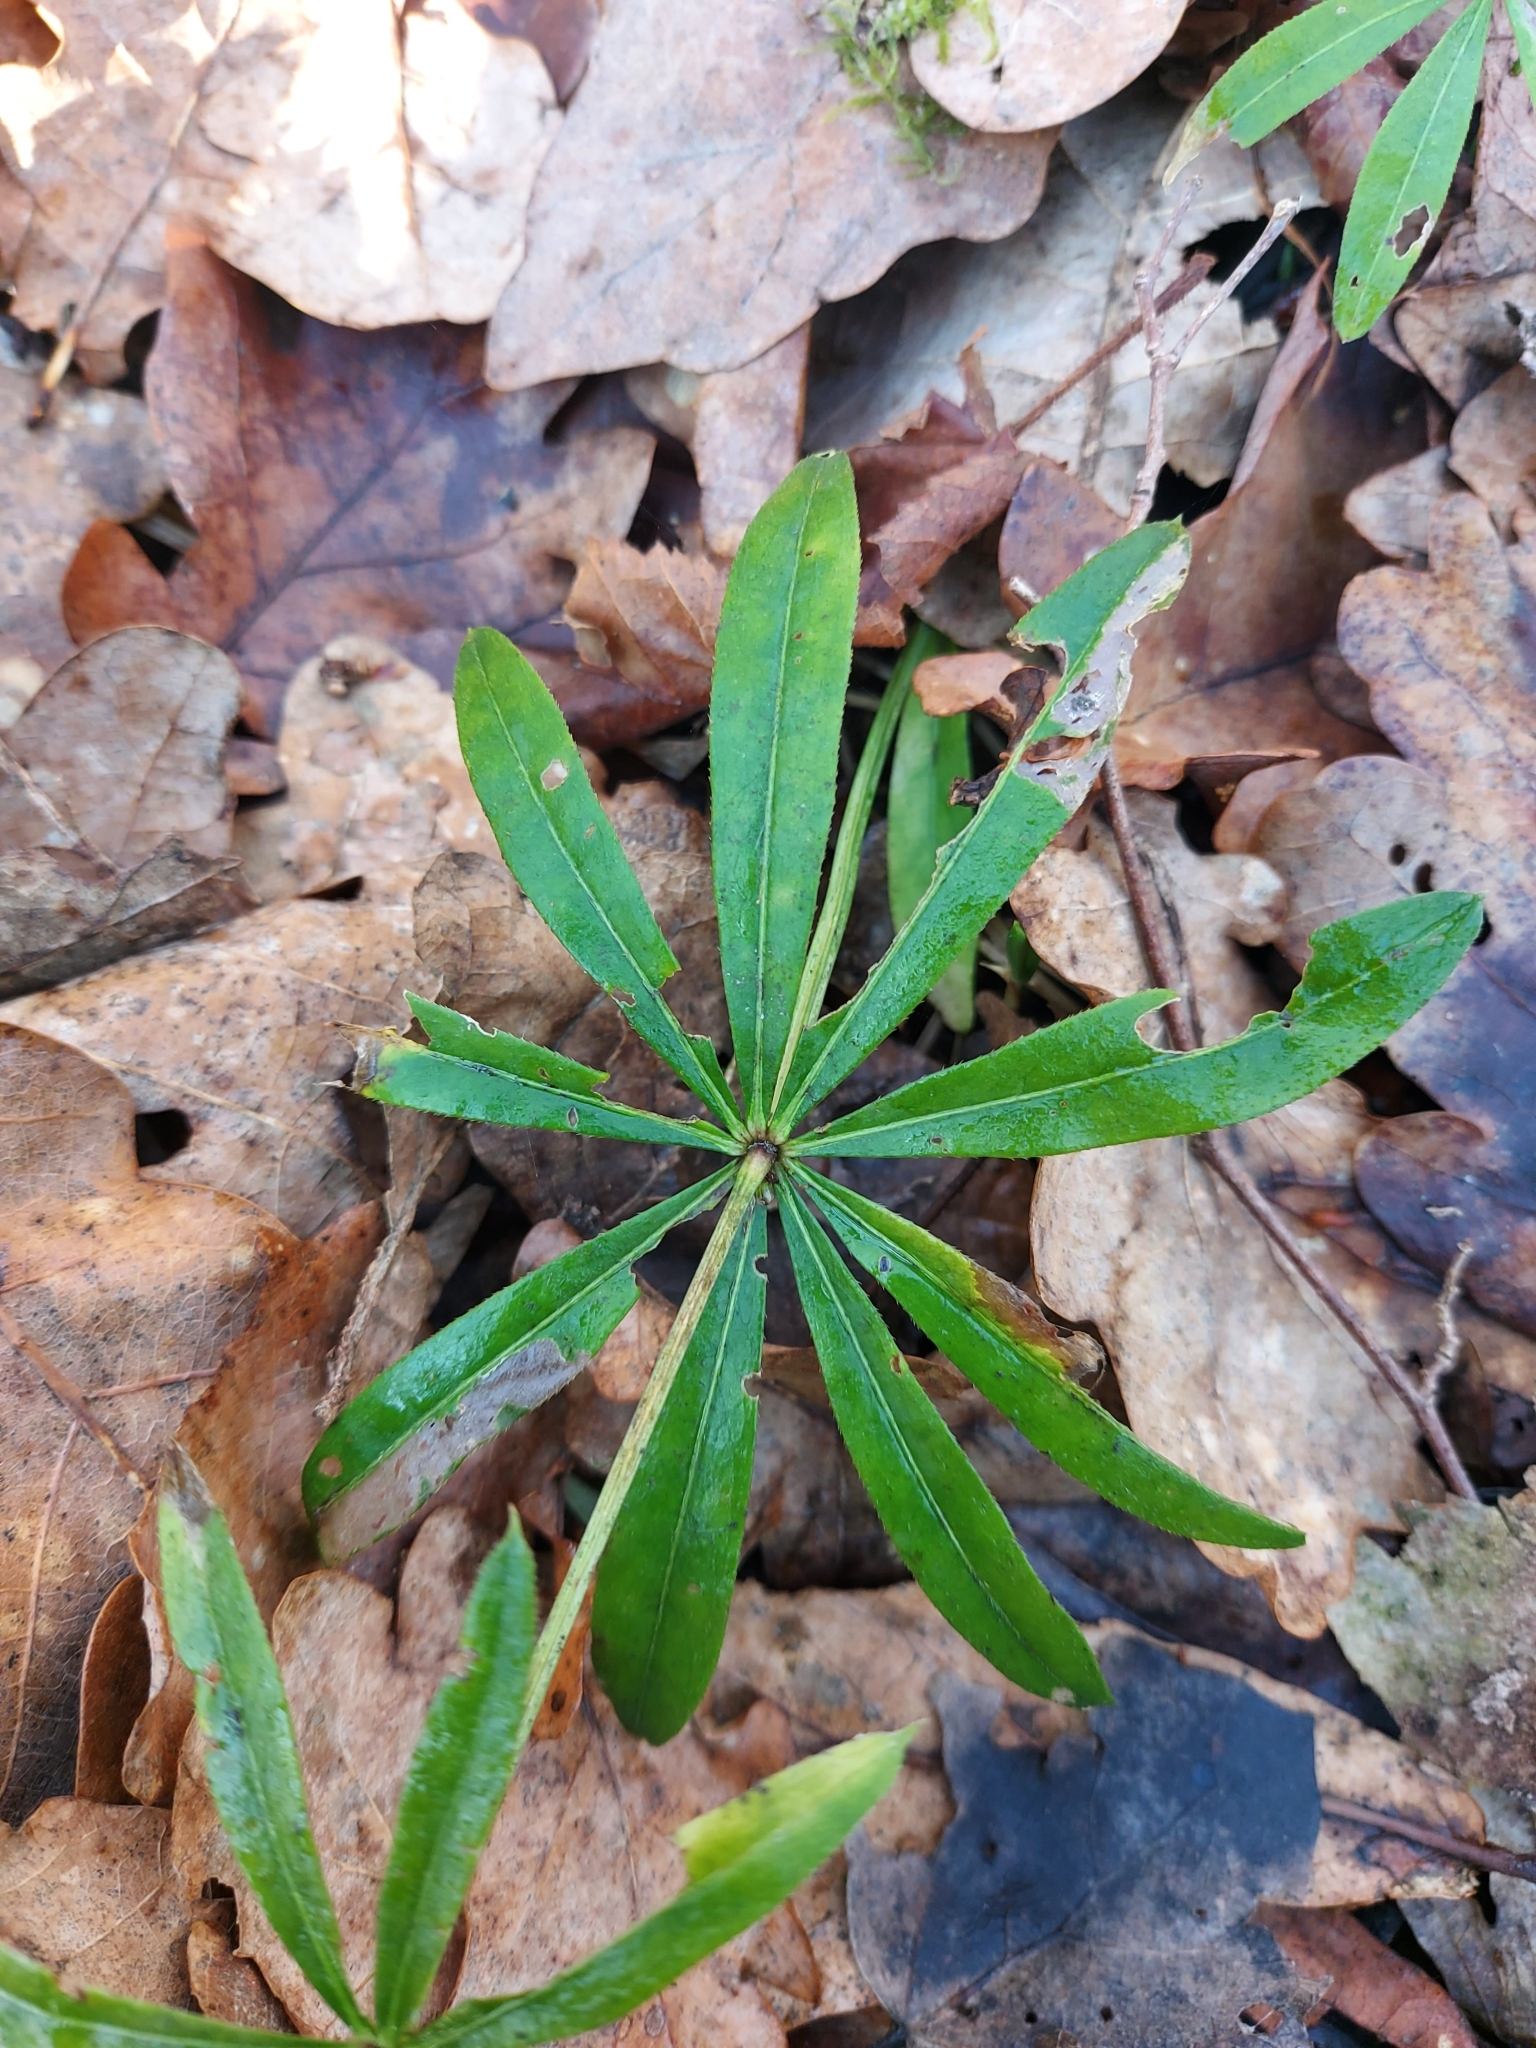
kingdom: Plantae
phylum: Tracheophyta
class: Magnoliopsida
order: Gentianales
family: Rubiaceae
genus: Galium
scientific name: Galium odoratum
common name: Sweet woodruff
